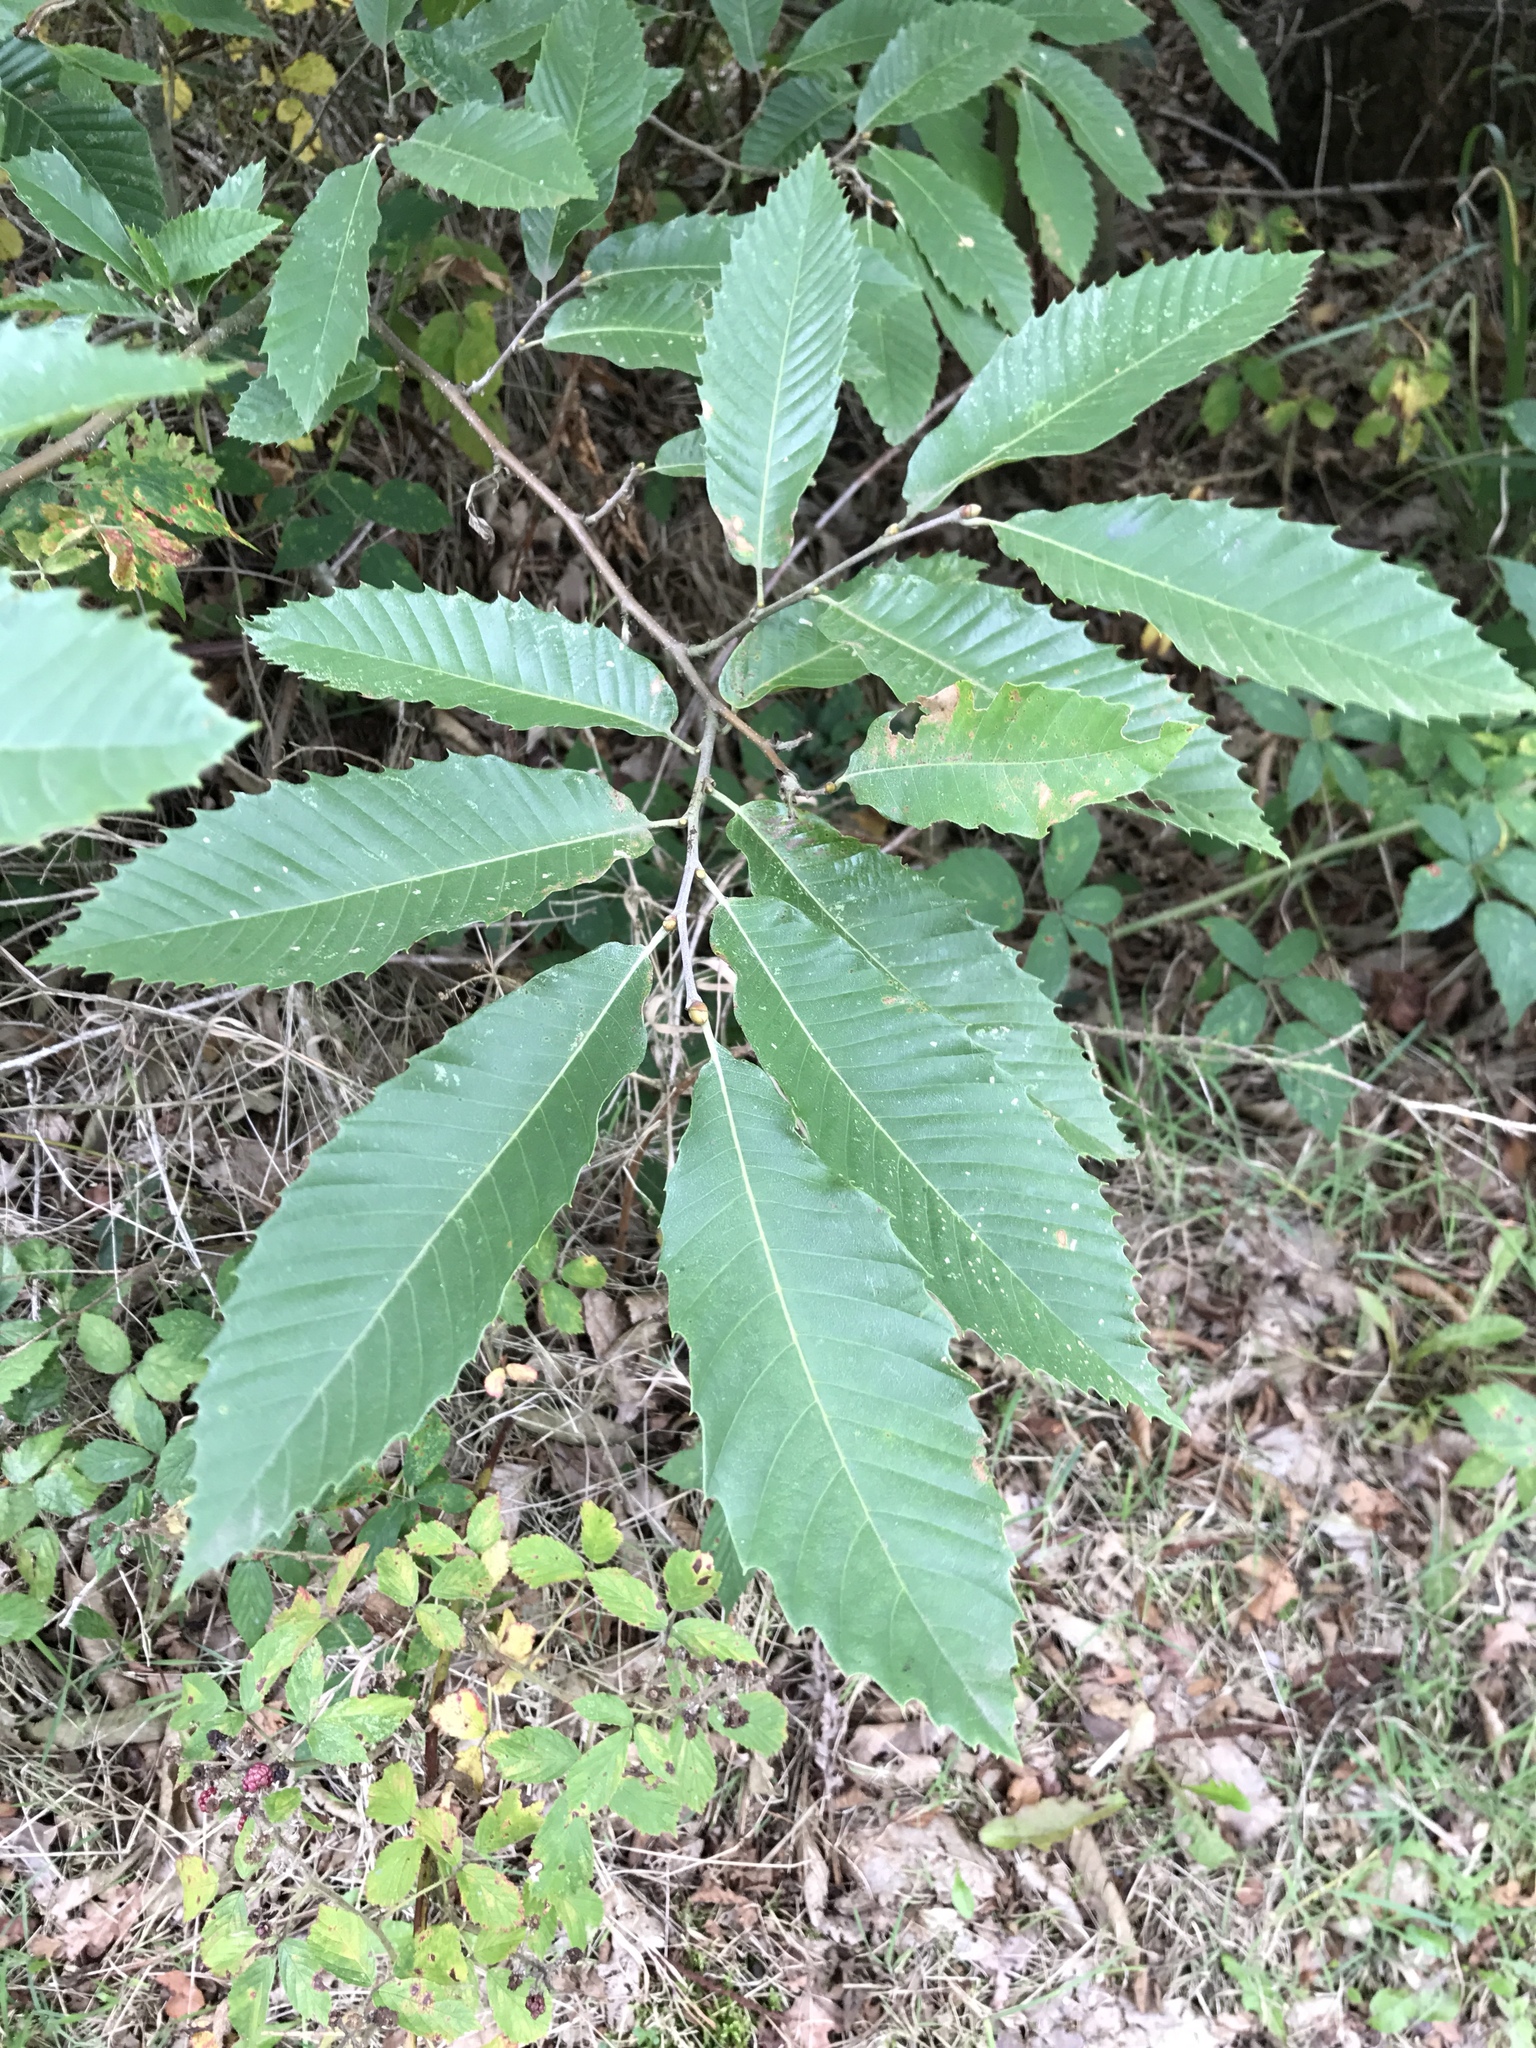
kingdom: Plantae
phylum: Tracheophyta
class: Magnoliopsida
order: Fagales
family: Fagaceae
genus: Castanea
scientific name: Castanea sativa
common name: Sweet chestnut
